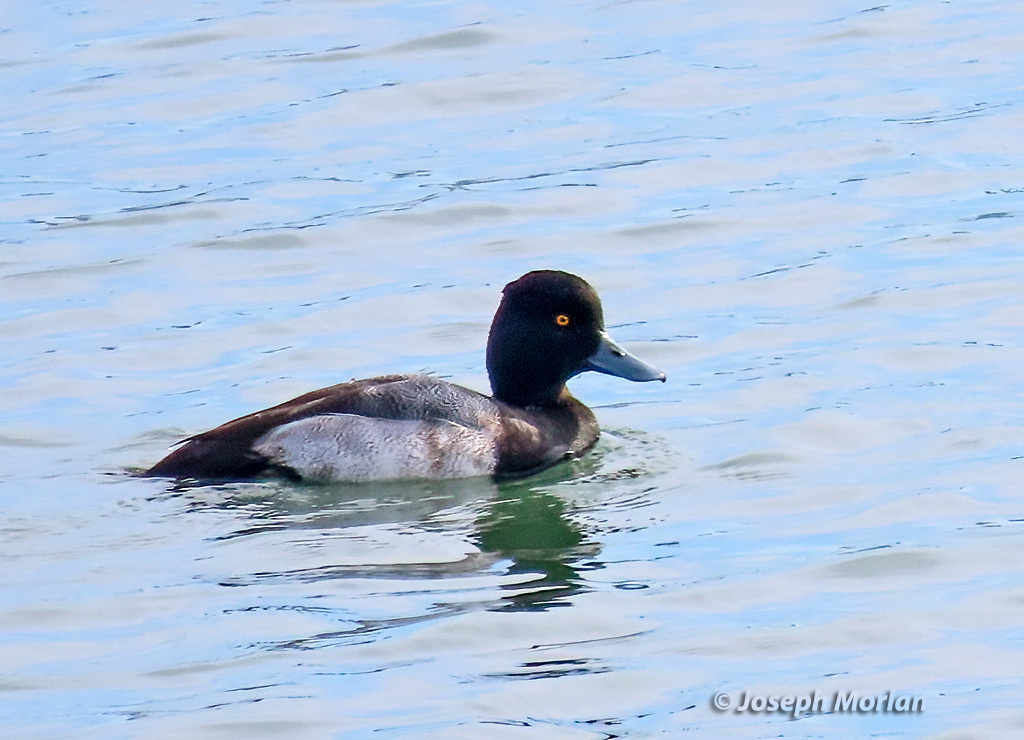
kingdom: Animalia
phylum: Chordata
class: Aves
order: Anseriformes
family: Anatidae
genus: Aythya
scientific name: Aythya affinis
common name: Lesser scaup
